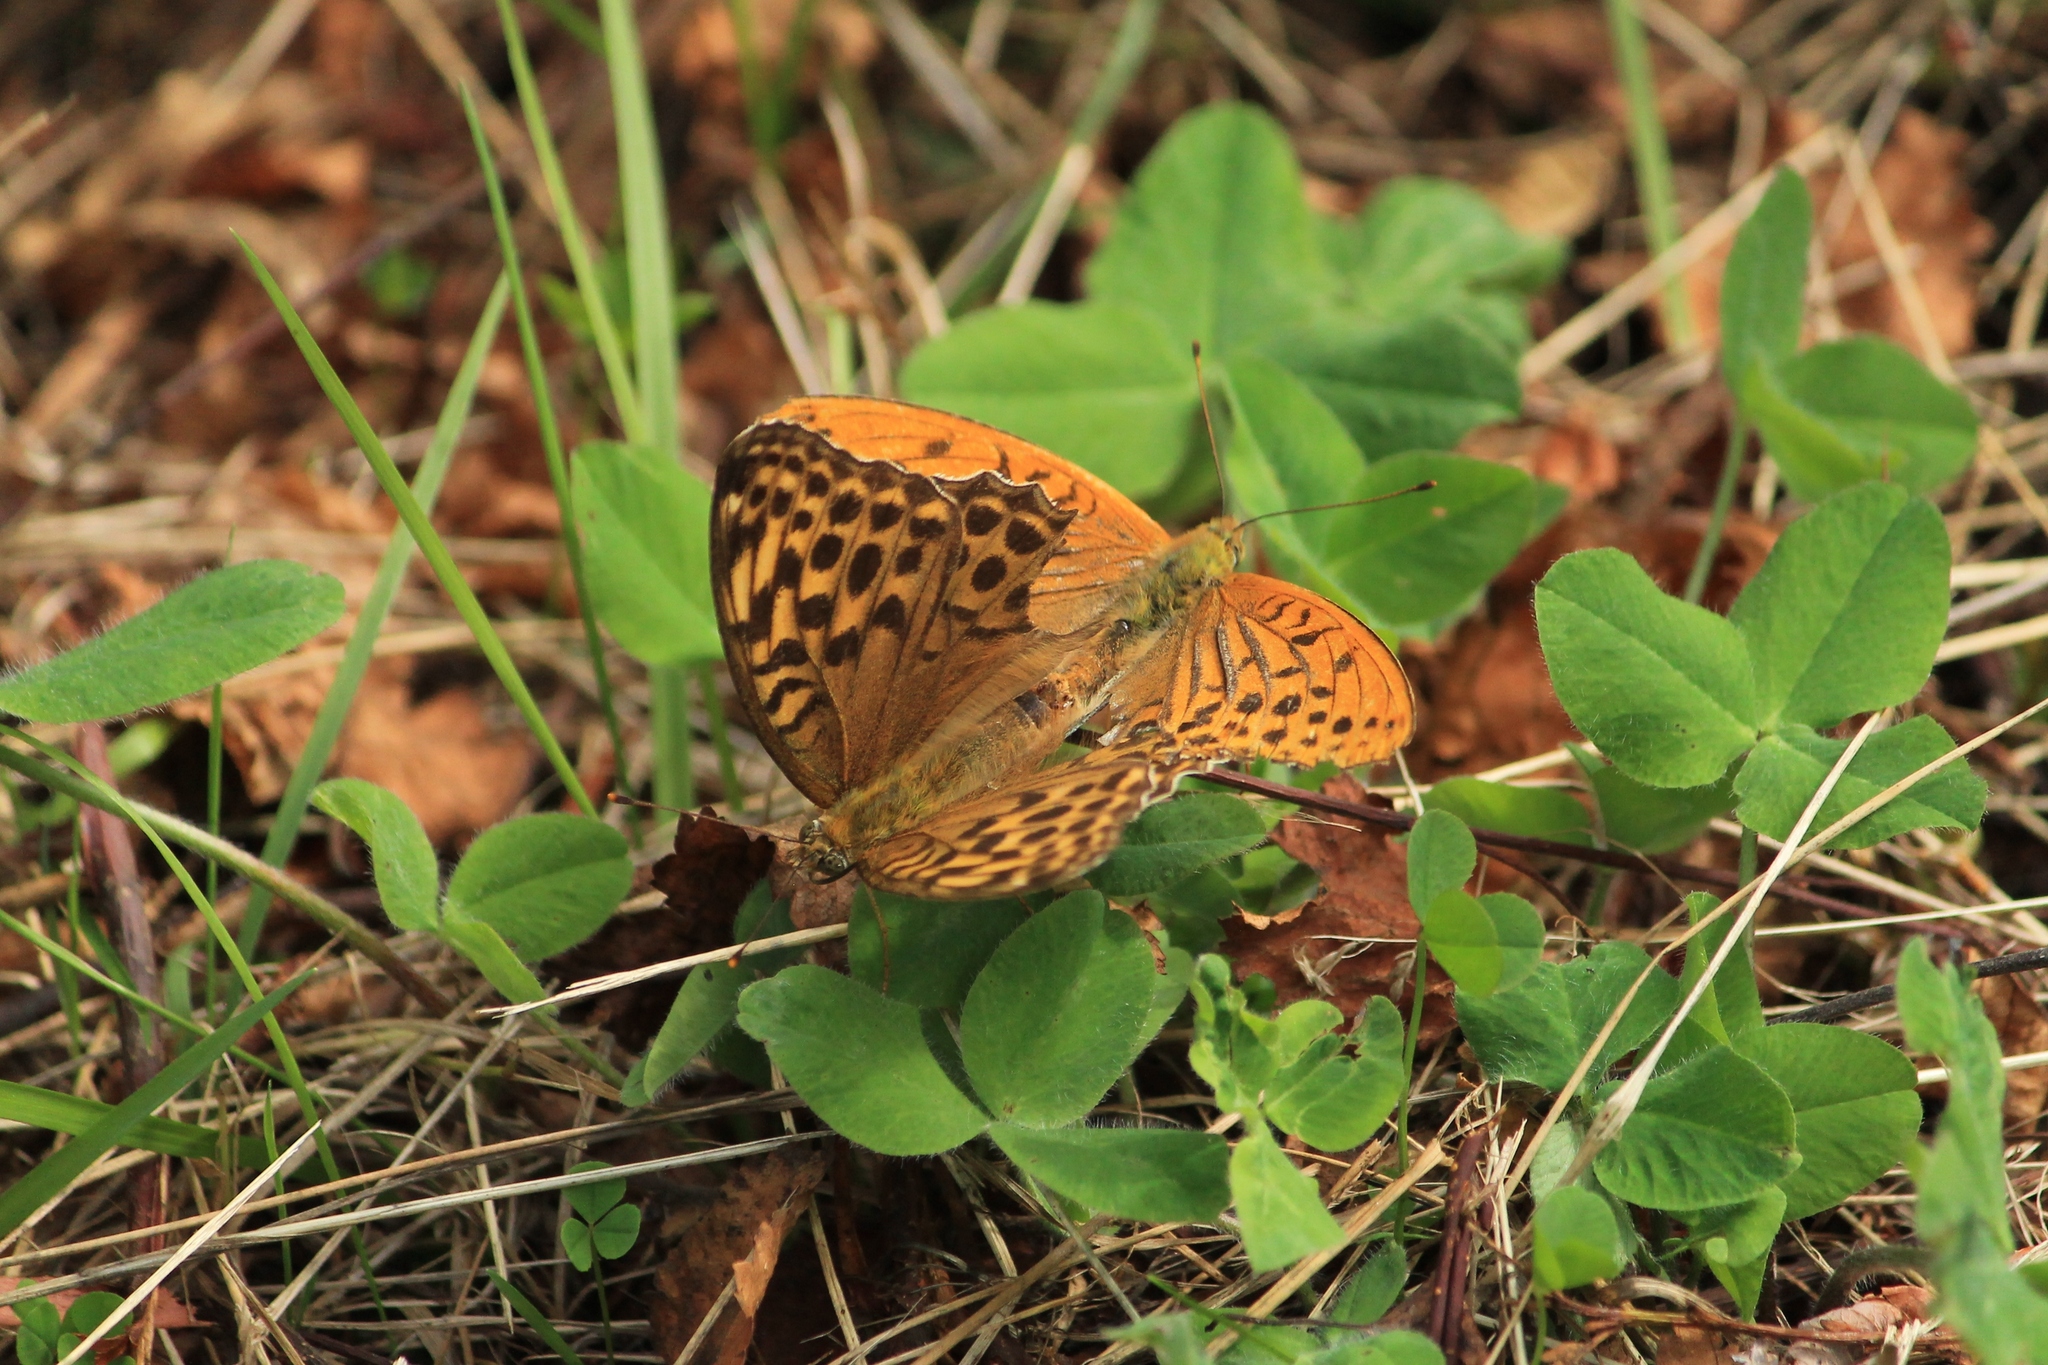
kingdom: Animalia
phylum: Arthropoda
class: Insecta
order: Lepidoptera
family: Nymphalidae
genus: Argynnis
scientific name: Argynnis paphia
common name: Silver-washed fritillary
